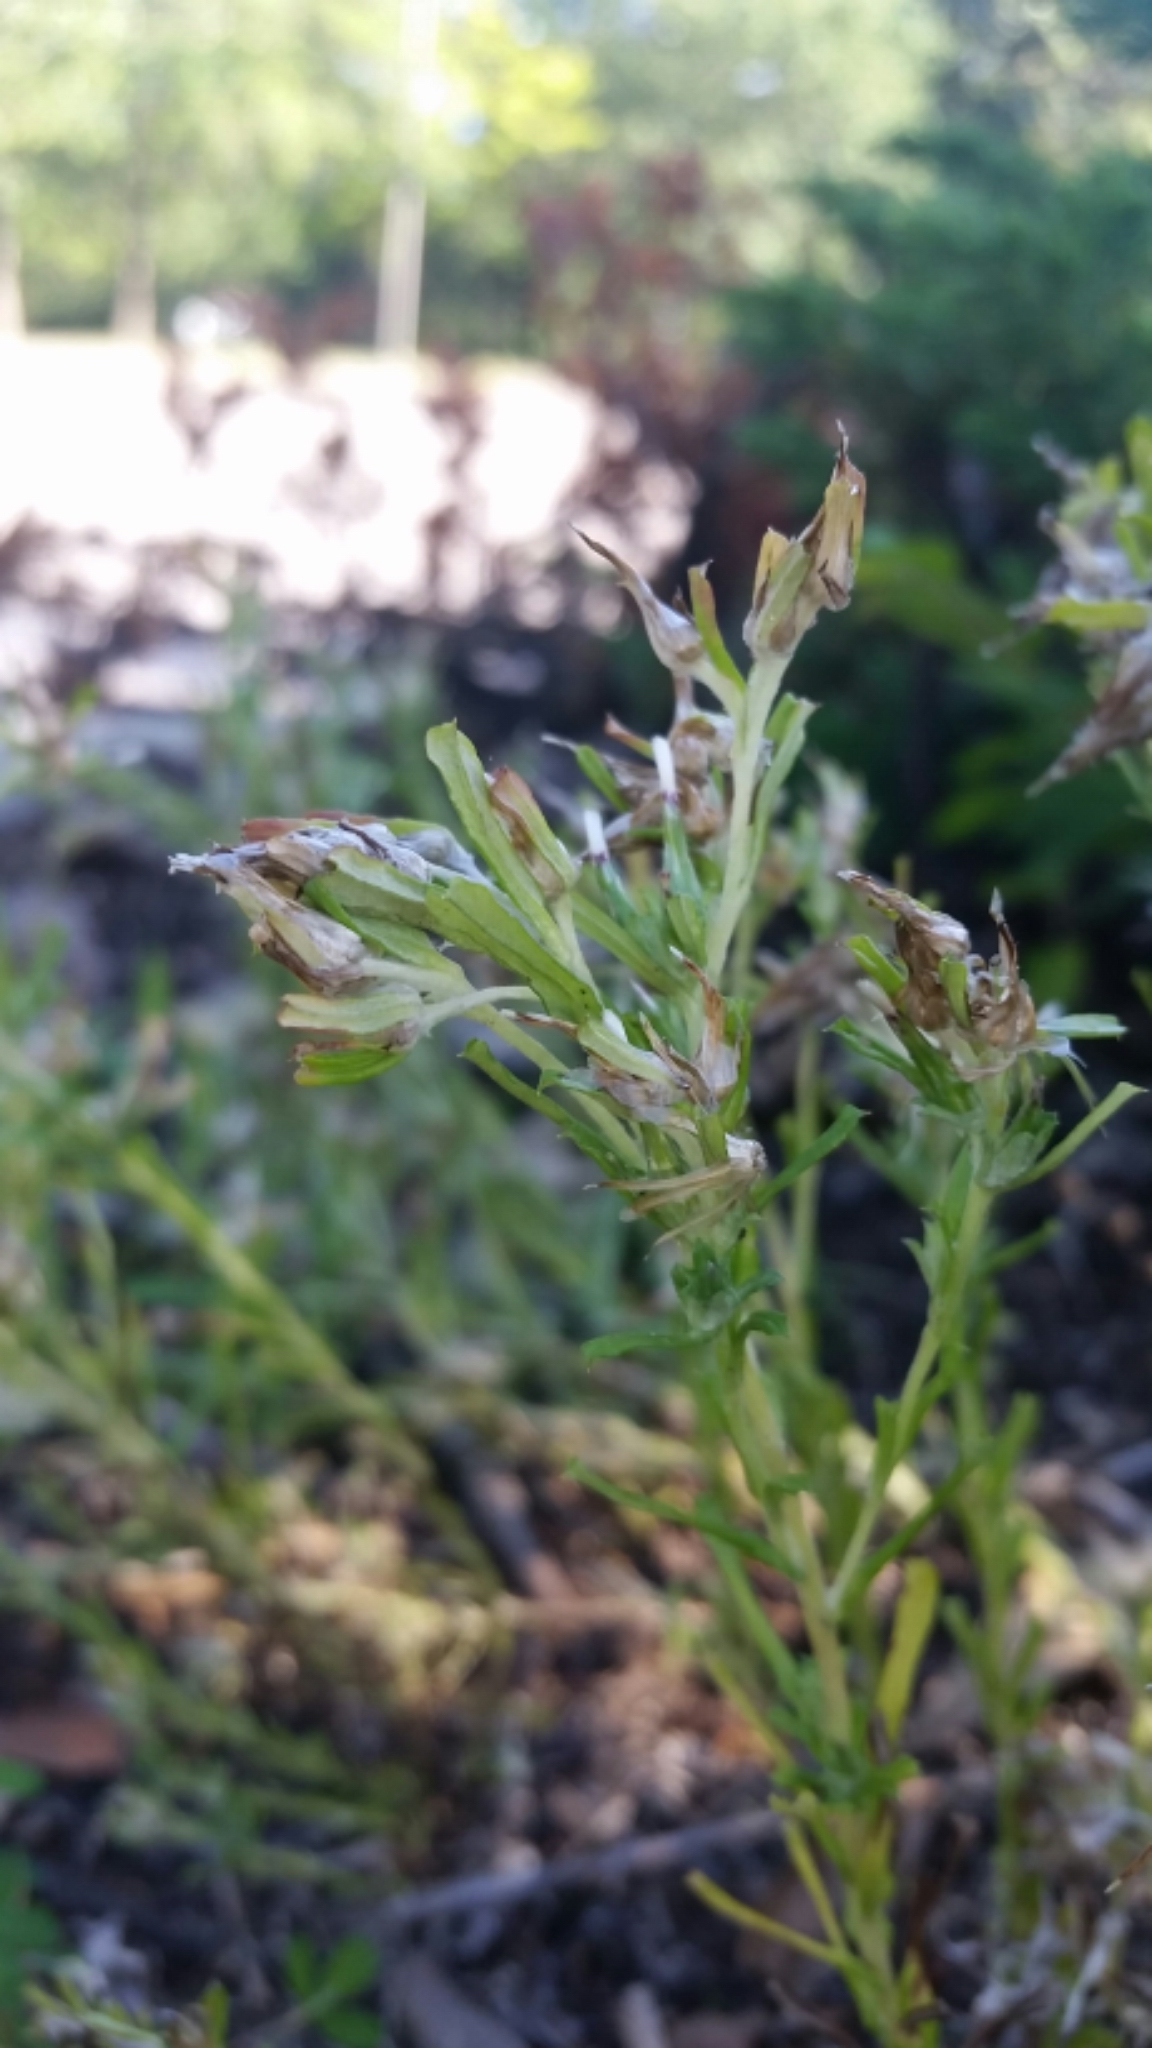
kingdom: Plantae
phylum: Tracheophyta
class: Magnoliopsida
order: Asterales
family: Asteraceae
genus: Facelis
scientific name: Facelis retusa
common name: Annual trampweed
